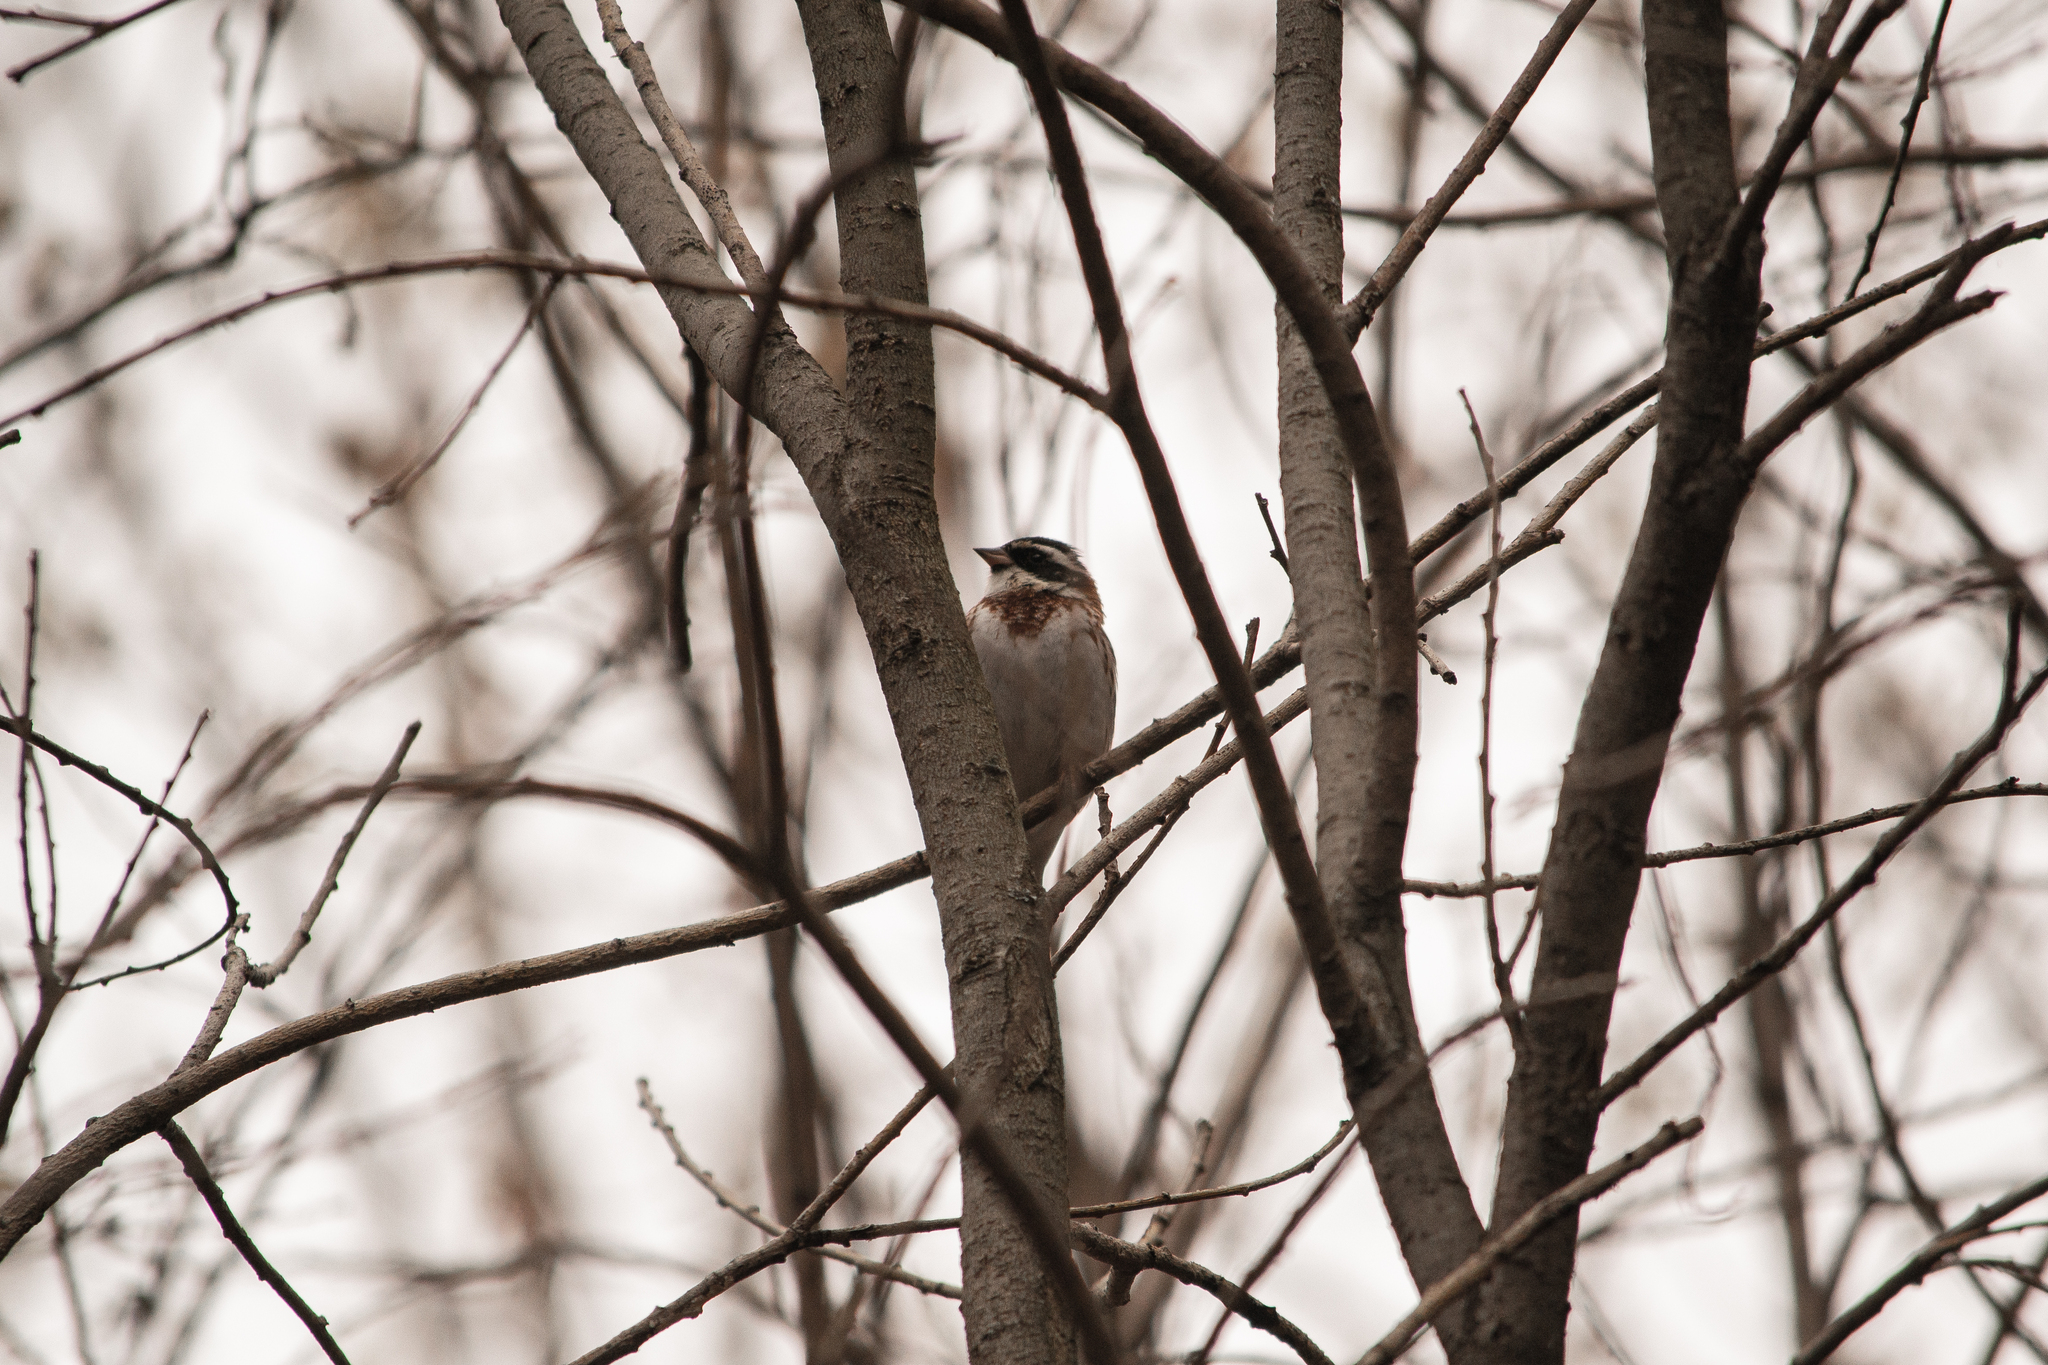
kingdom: Animalia
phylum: Chordata
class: Aves
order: Passeriformes
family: Emberizidae
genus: Emberiza
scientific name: Emberiza rustica
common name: Rustic bunting
